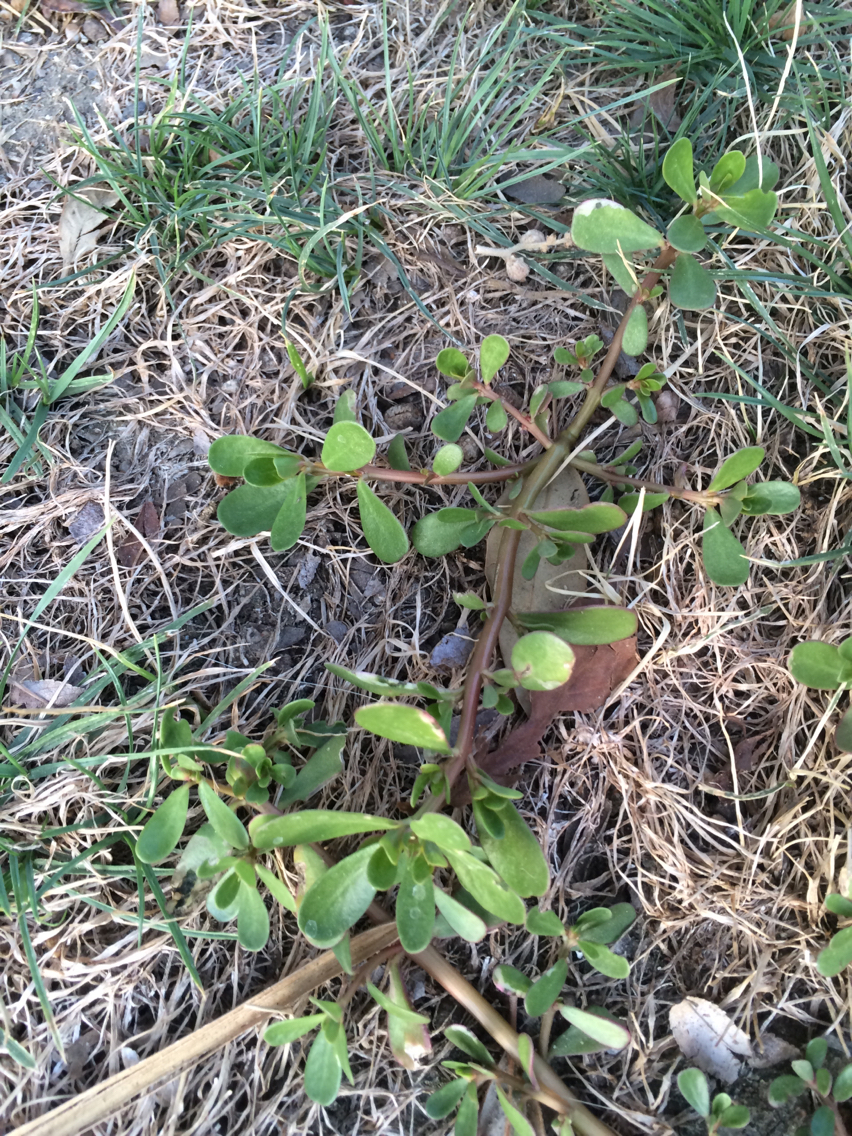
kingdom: Plantae
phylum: Tracheophyta
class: Magnoliopsida
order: Caryophyllales
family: Portulacaceae
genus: Portulaca
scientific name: Portulaca oleracea
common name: Common purslane
